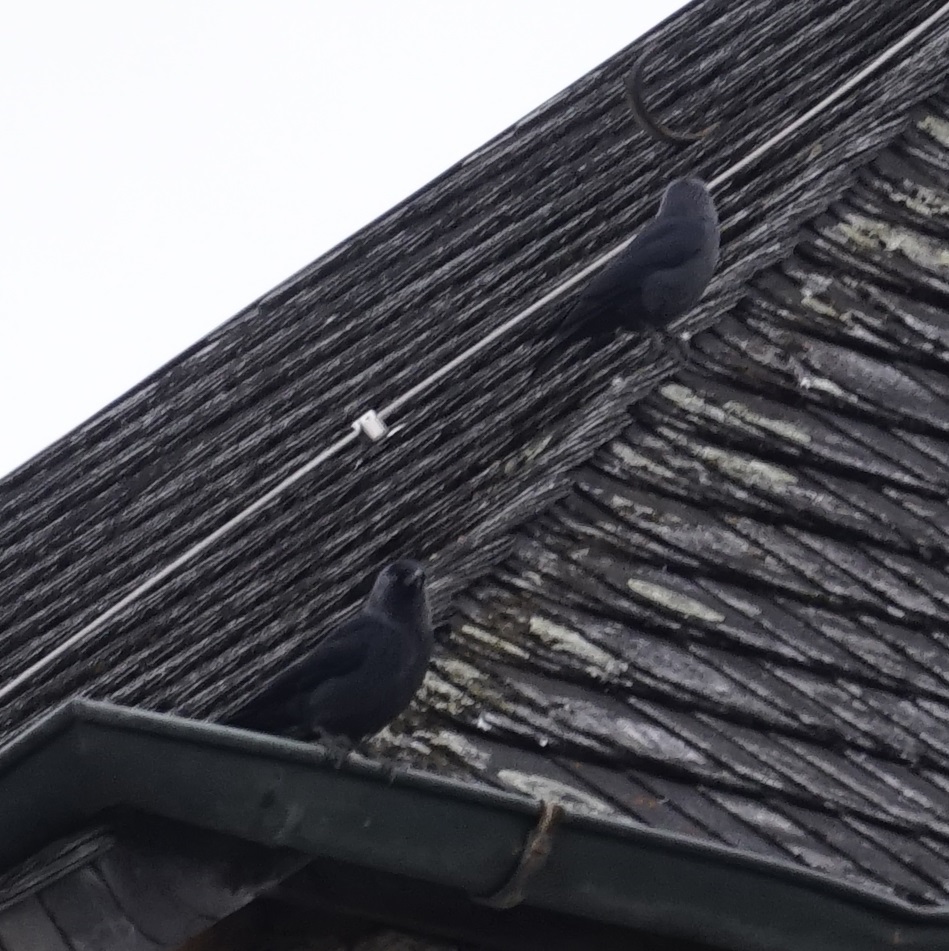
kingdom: Animalia
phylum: Chordata
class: Aves
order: Passeriformes
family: Corvidae
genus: Coloeus
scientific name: Coloeus monedula
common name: Western jackdaw
